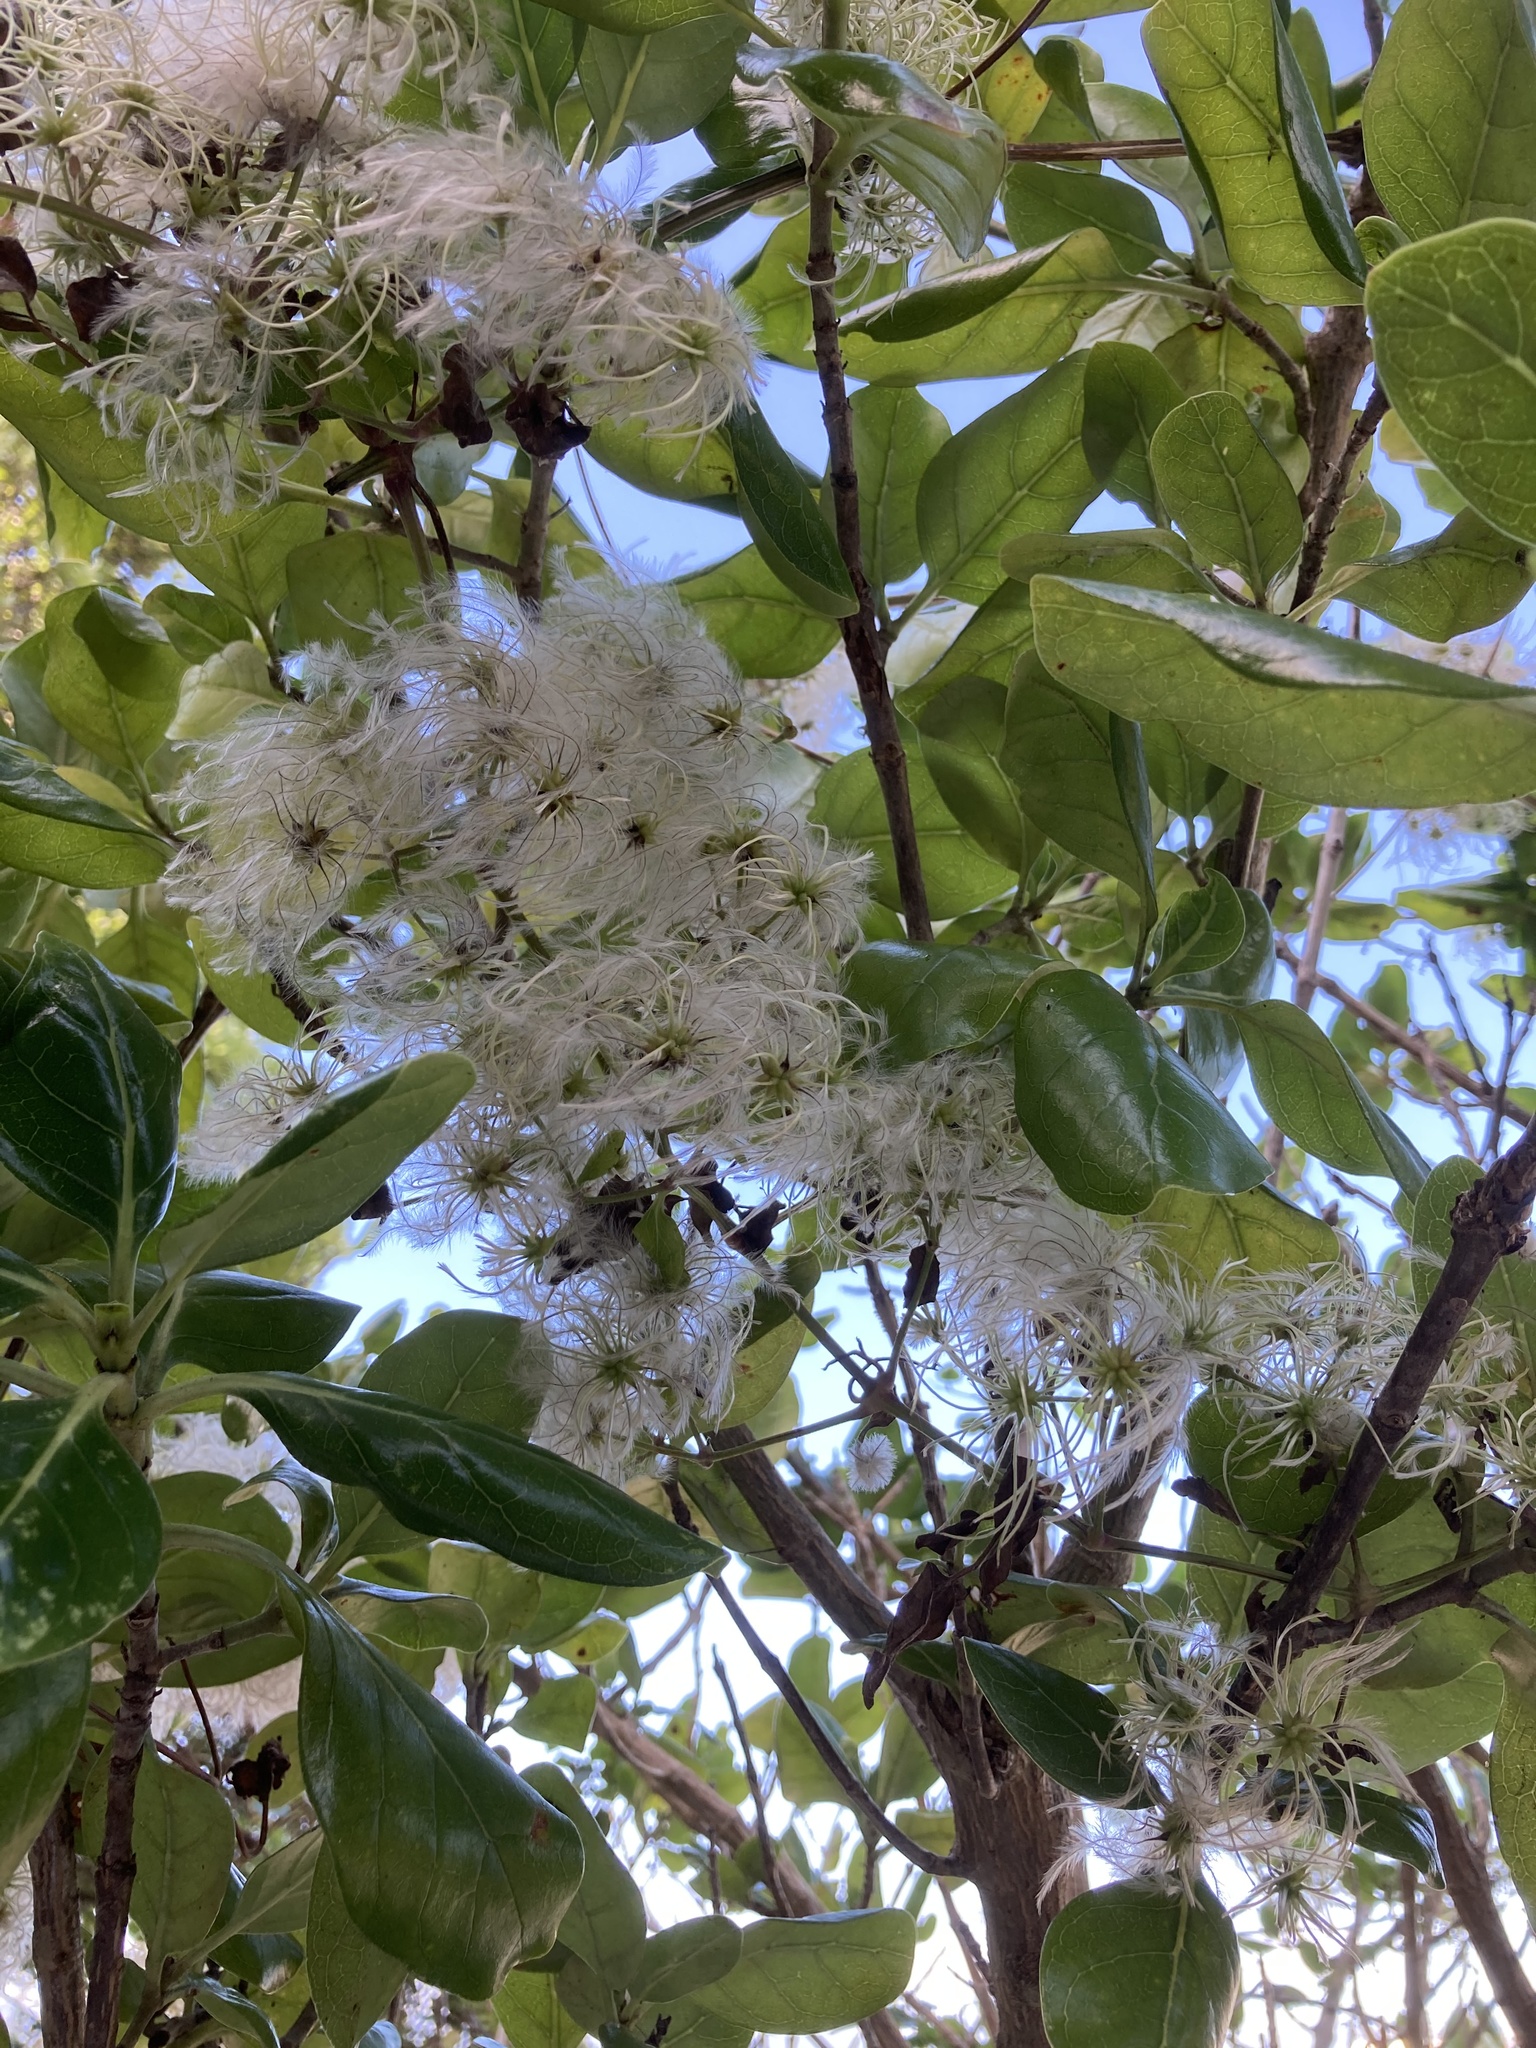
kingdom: Plantae
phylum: Tracheophyta
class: Magnoliopsida
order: Ranunculales
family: Ranunculaceae
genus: Clematis
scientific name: Clematis vitalba
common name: Evergreen clematis
